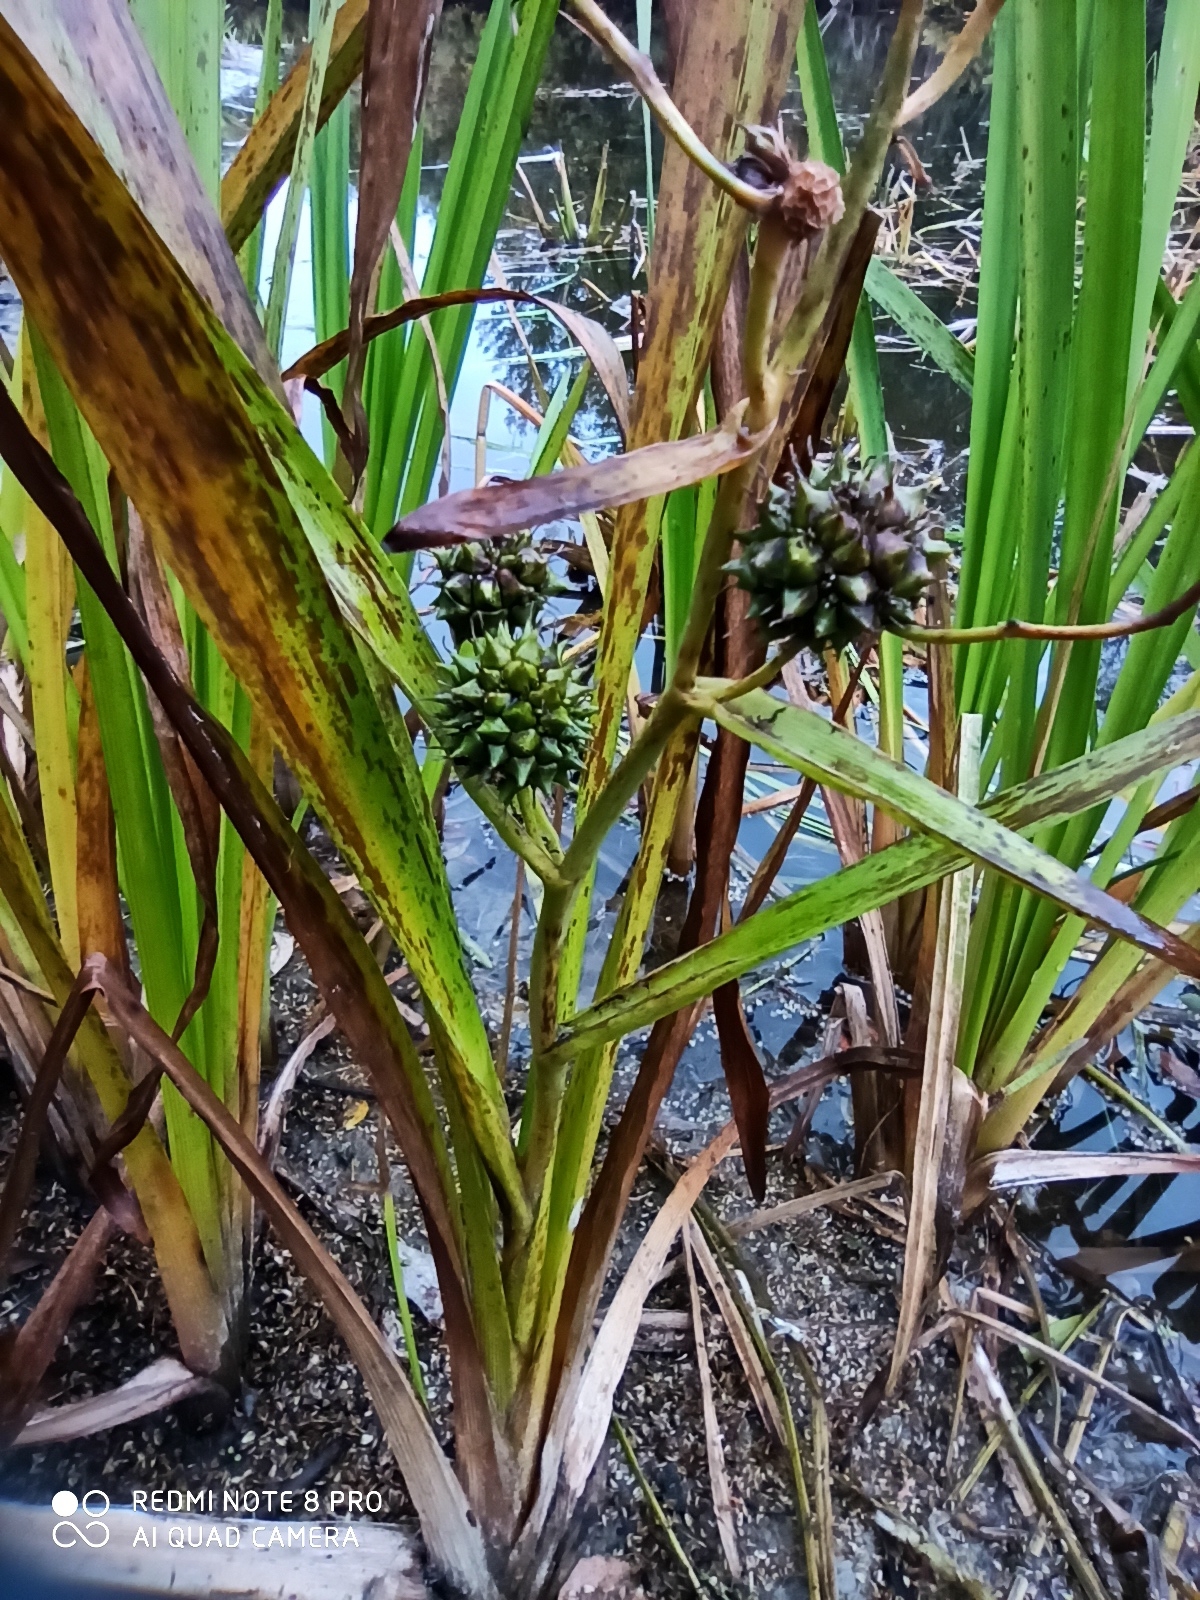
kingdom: Plantae
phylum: Tracheophyta
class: Liliopsida
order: Poales
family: Typhaceae
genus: Sparganium
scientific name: Sparganium erectum
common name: Branched bur-reed
